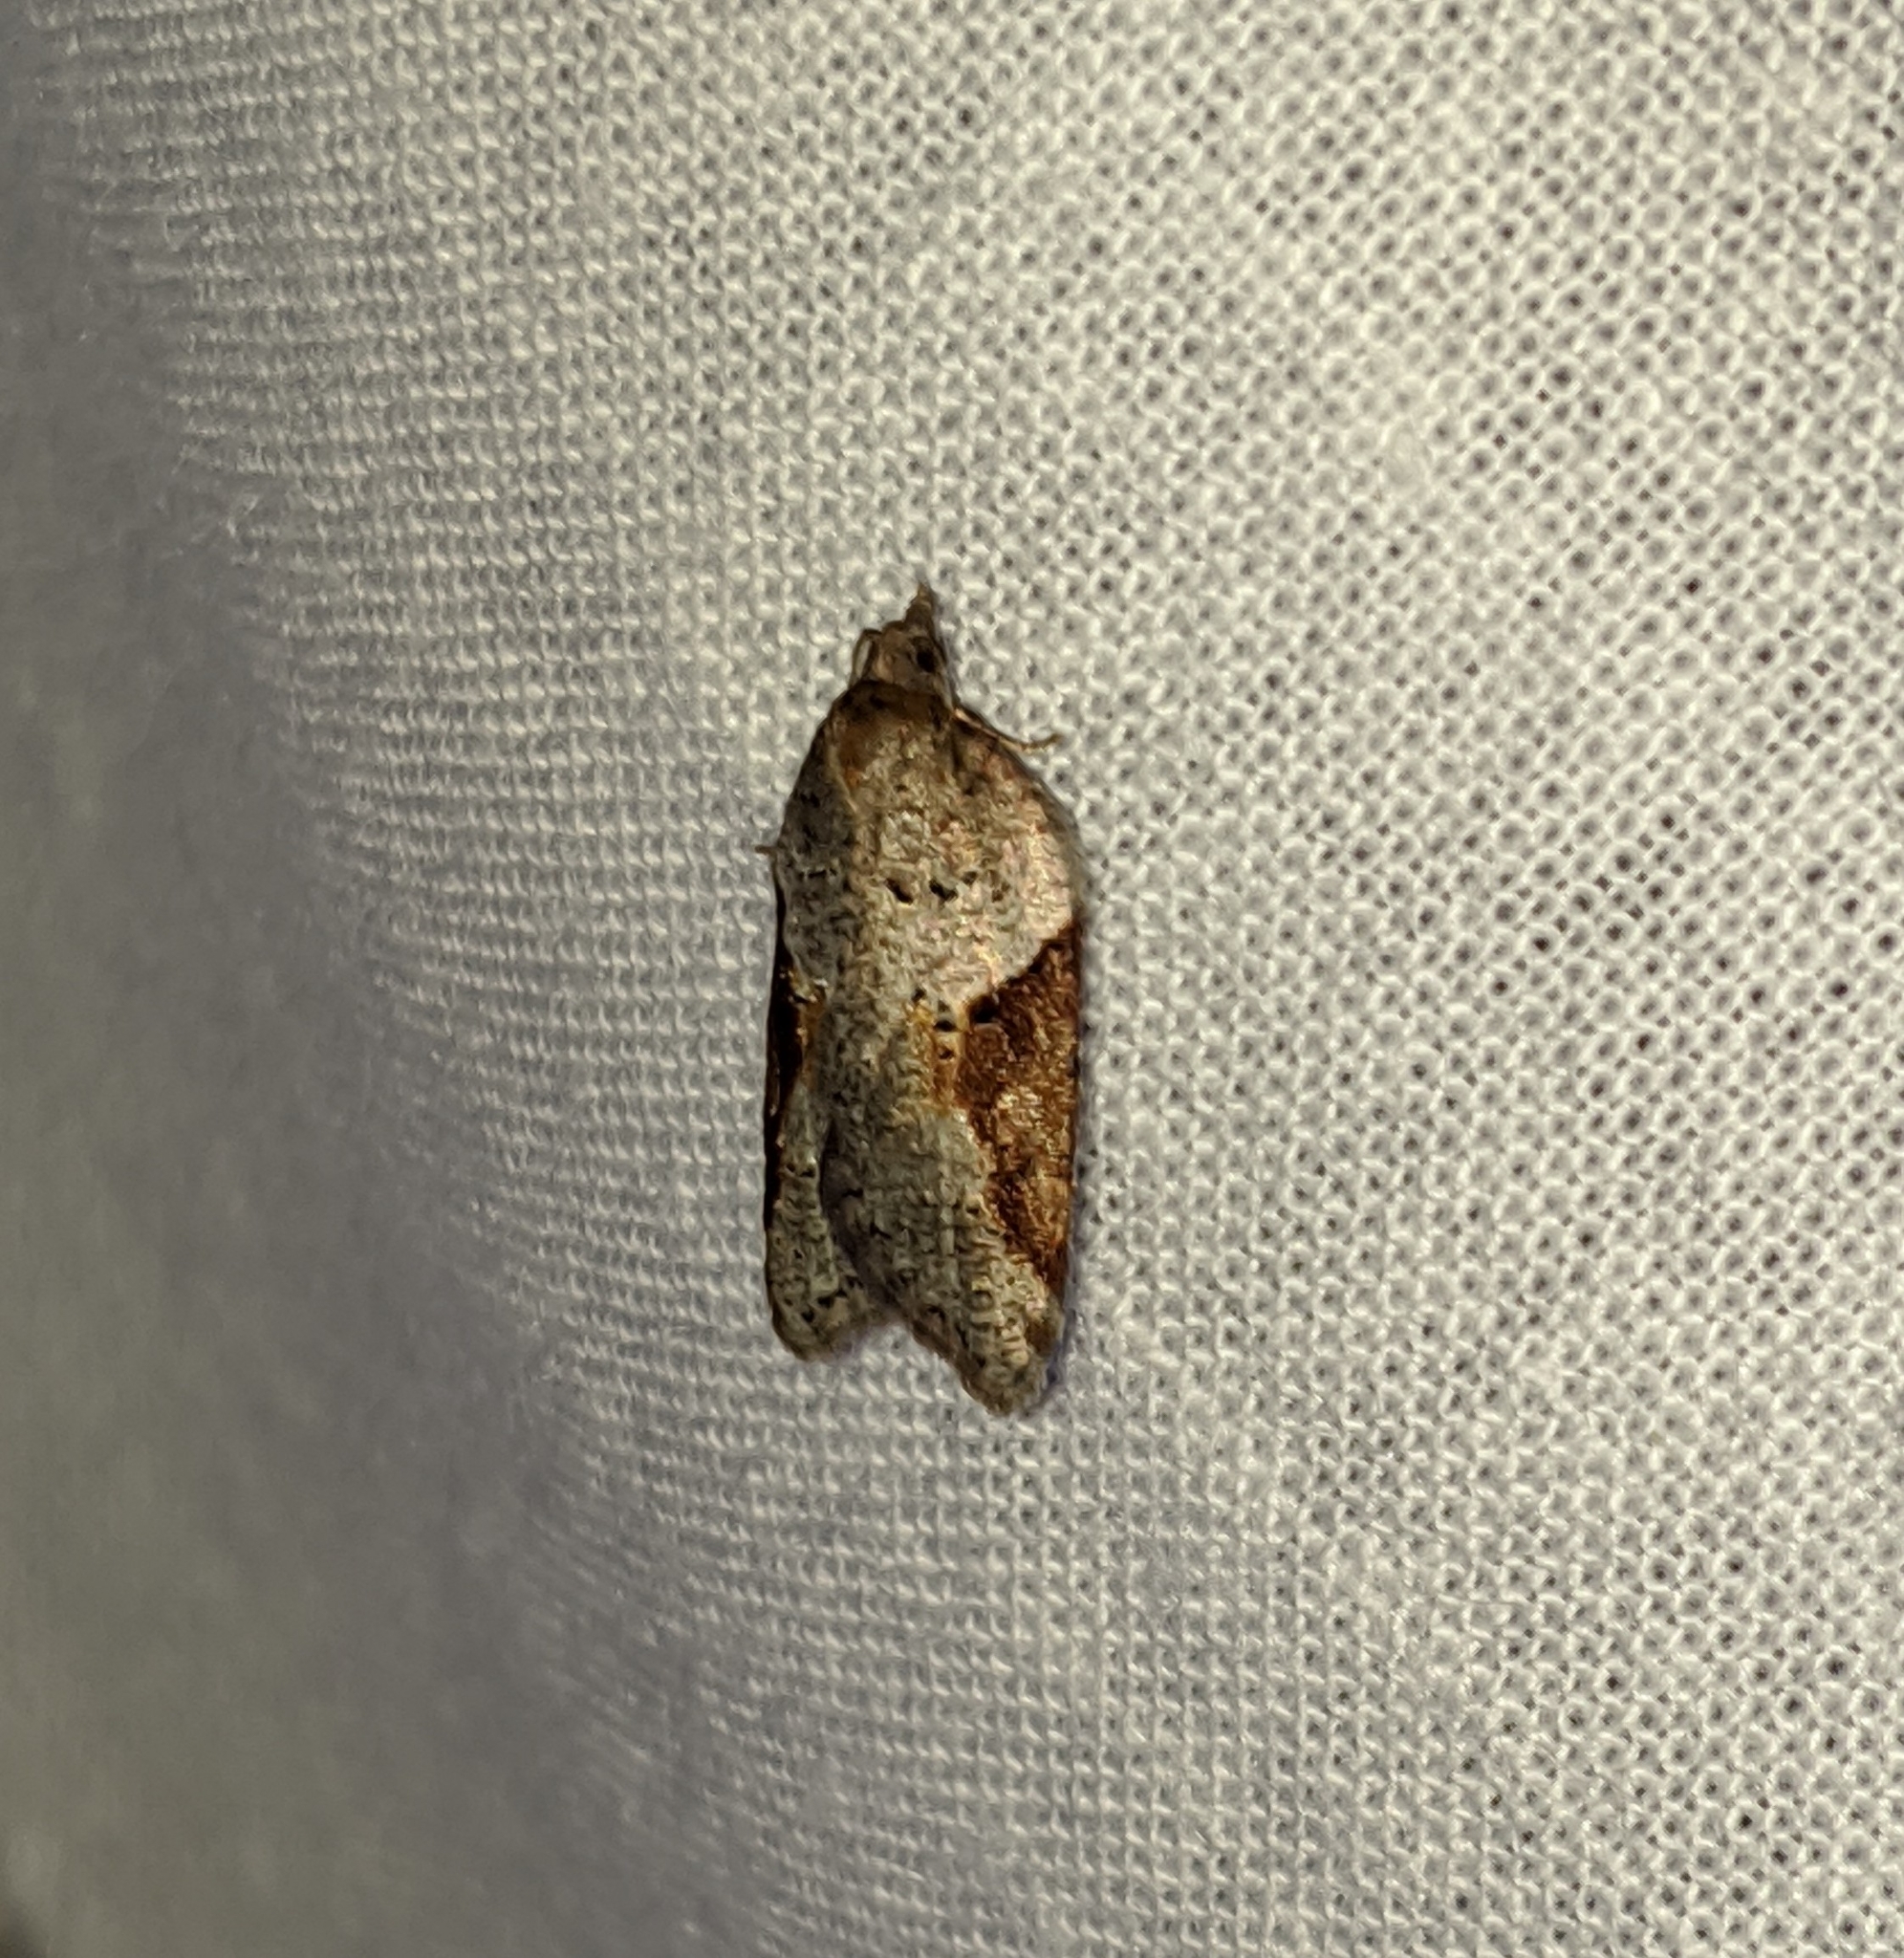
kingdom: Animalia
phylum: Arthropoda
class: Insecta
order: Lepidoptera
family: Tortricidae
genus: Acleris
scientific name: Acleris macdunnoughi
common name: Macdunnough's acleris
